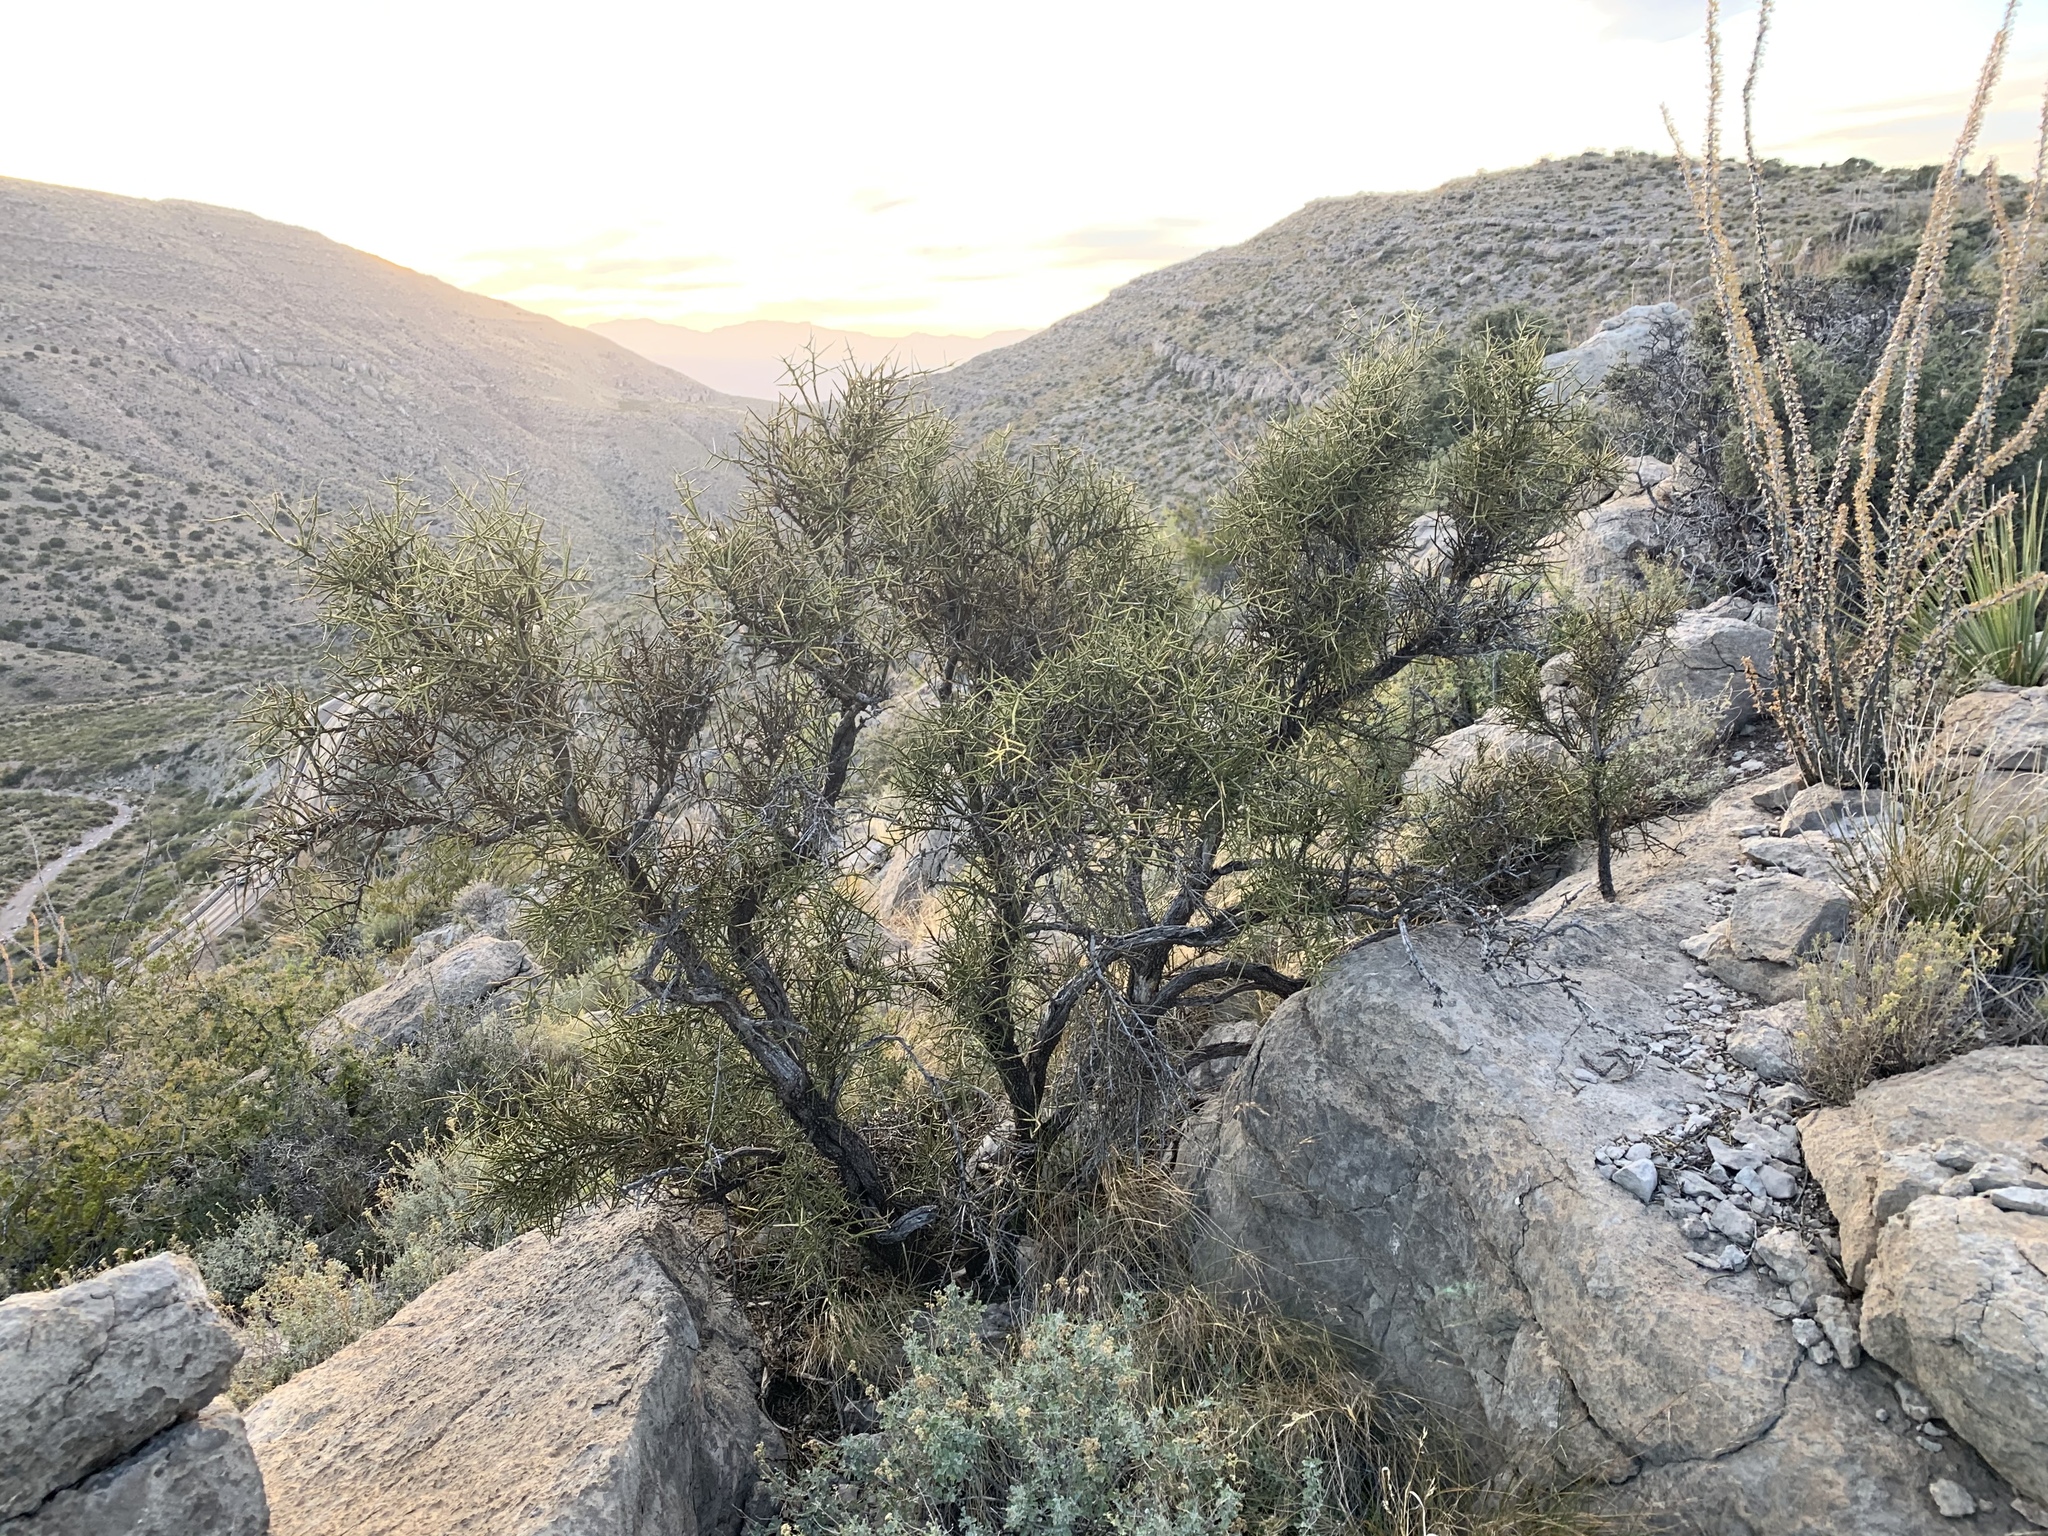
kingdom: Plantae
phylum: Tracheophyta
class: Magnoliopsida
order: Brassicales
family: Koeberliniaceae
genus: Koeberlinia
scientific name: Koeberlinia spinosa
